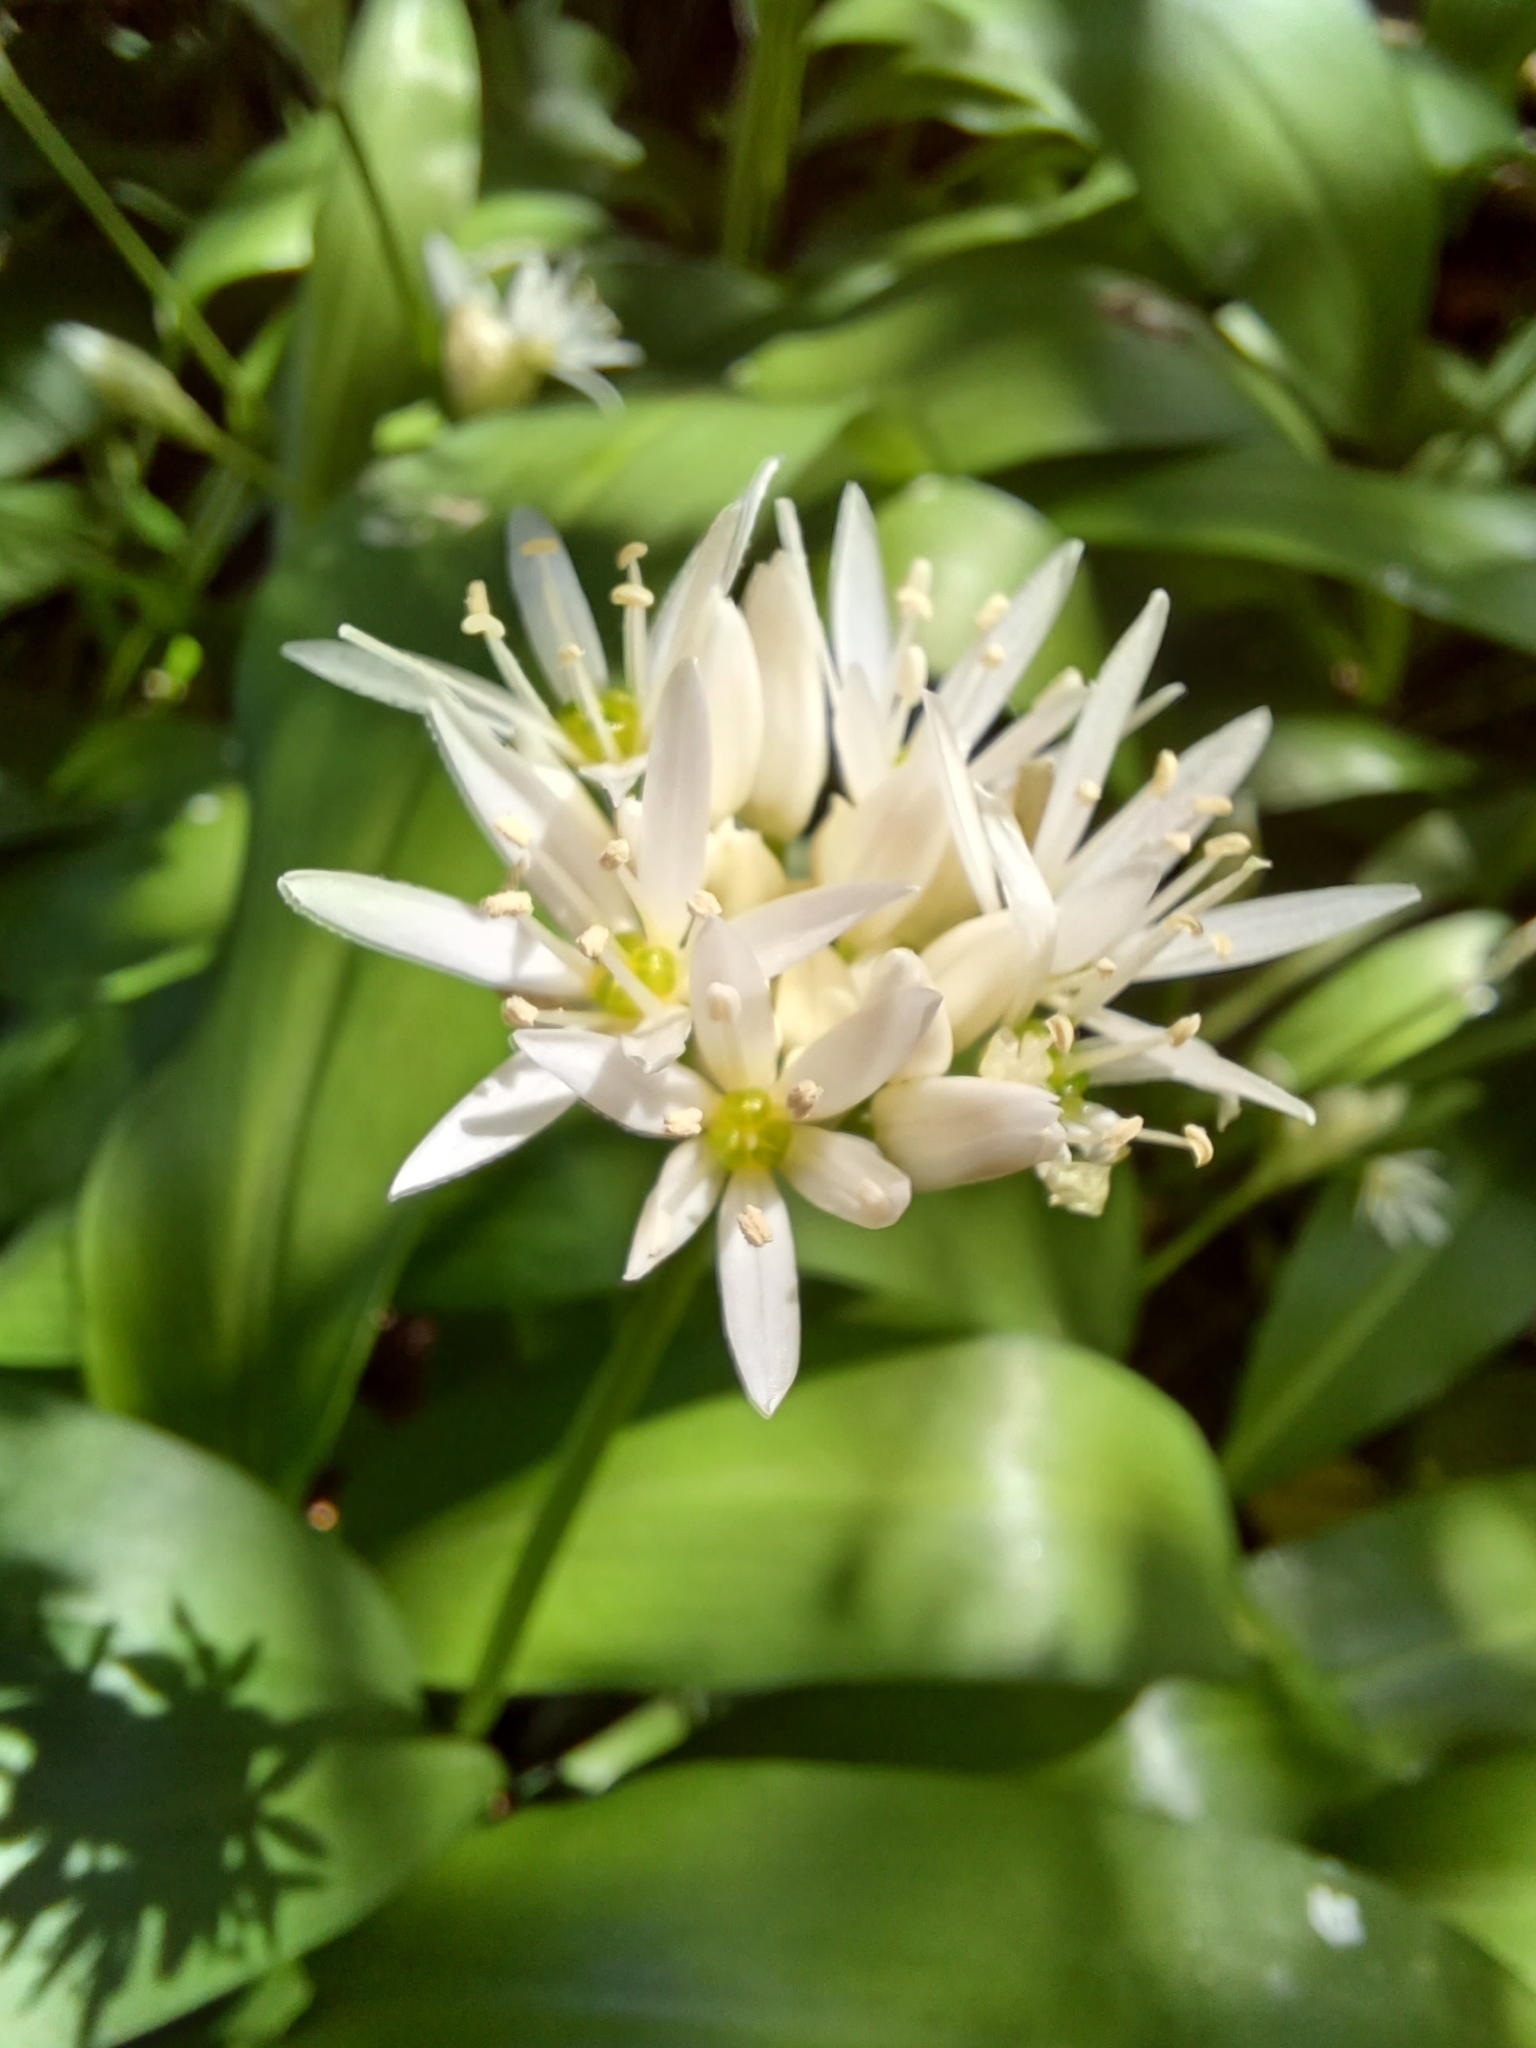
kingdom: Plantae
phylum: Tracheophyta
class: Liliopsida
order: Asparagales
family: Amaryllidaceae
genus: Allium
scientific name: Allium ursinum
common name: Ramsons
